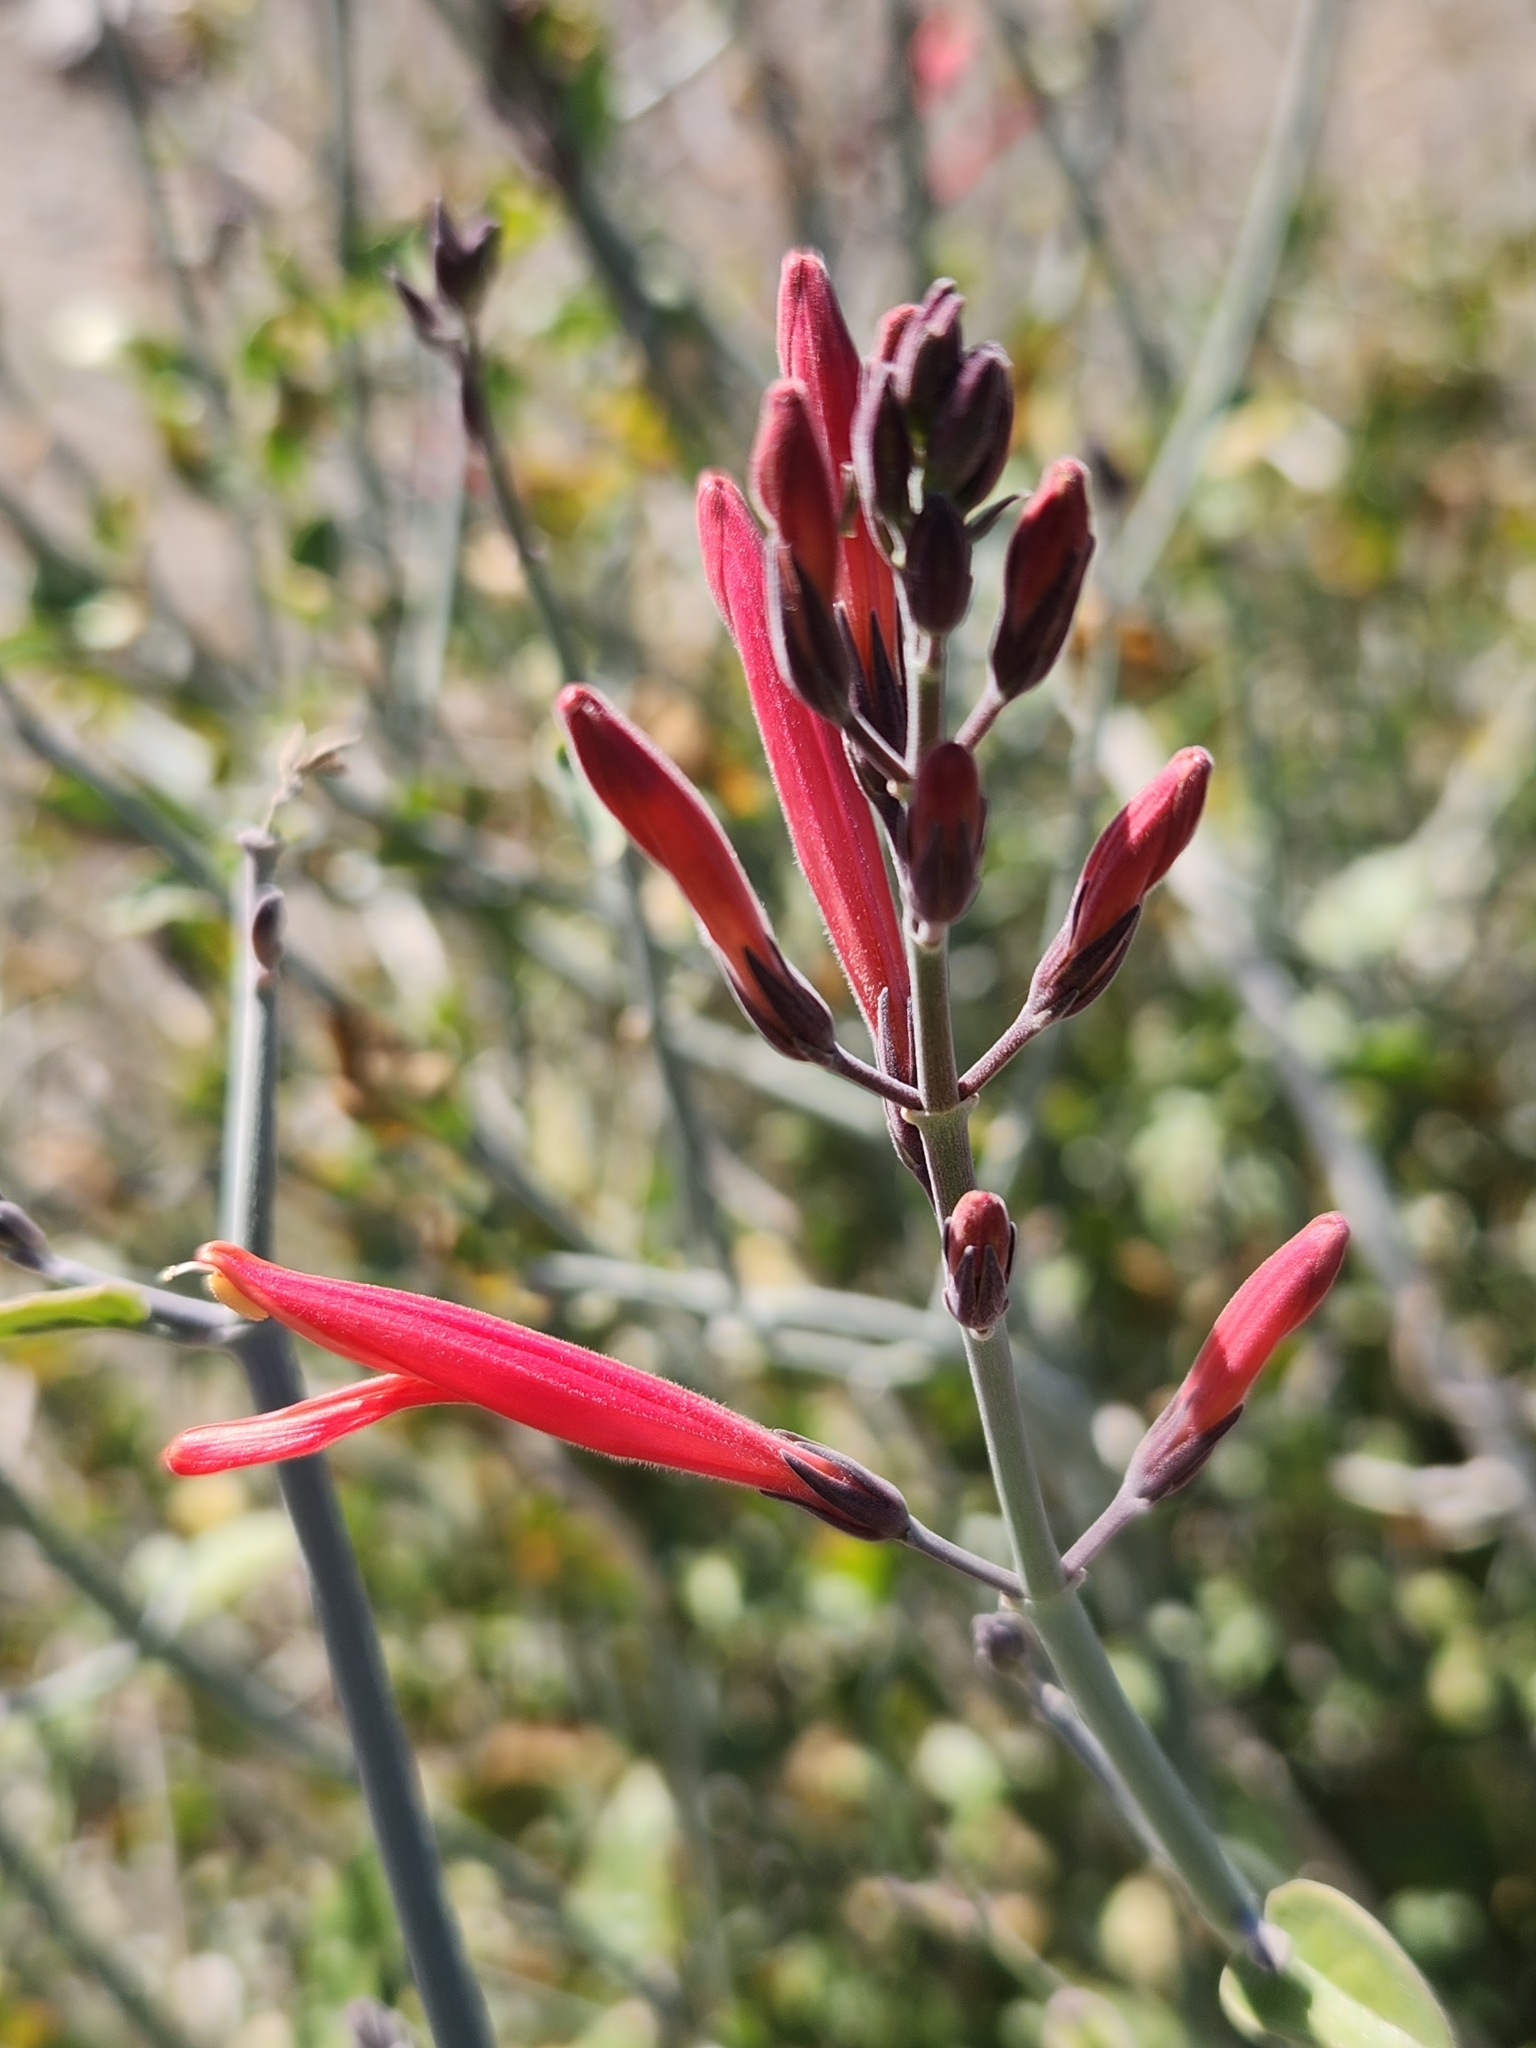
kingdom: Plantae
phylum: Tracheophyta
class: Magnoliopsida
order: Lamiales
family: Acanthaceae
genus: Justicia
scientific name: Justicia californica
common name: Chuparosa-honeysuckle
